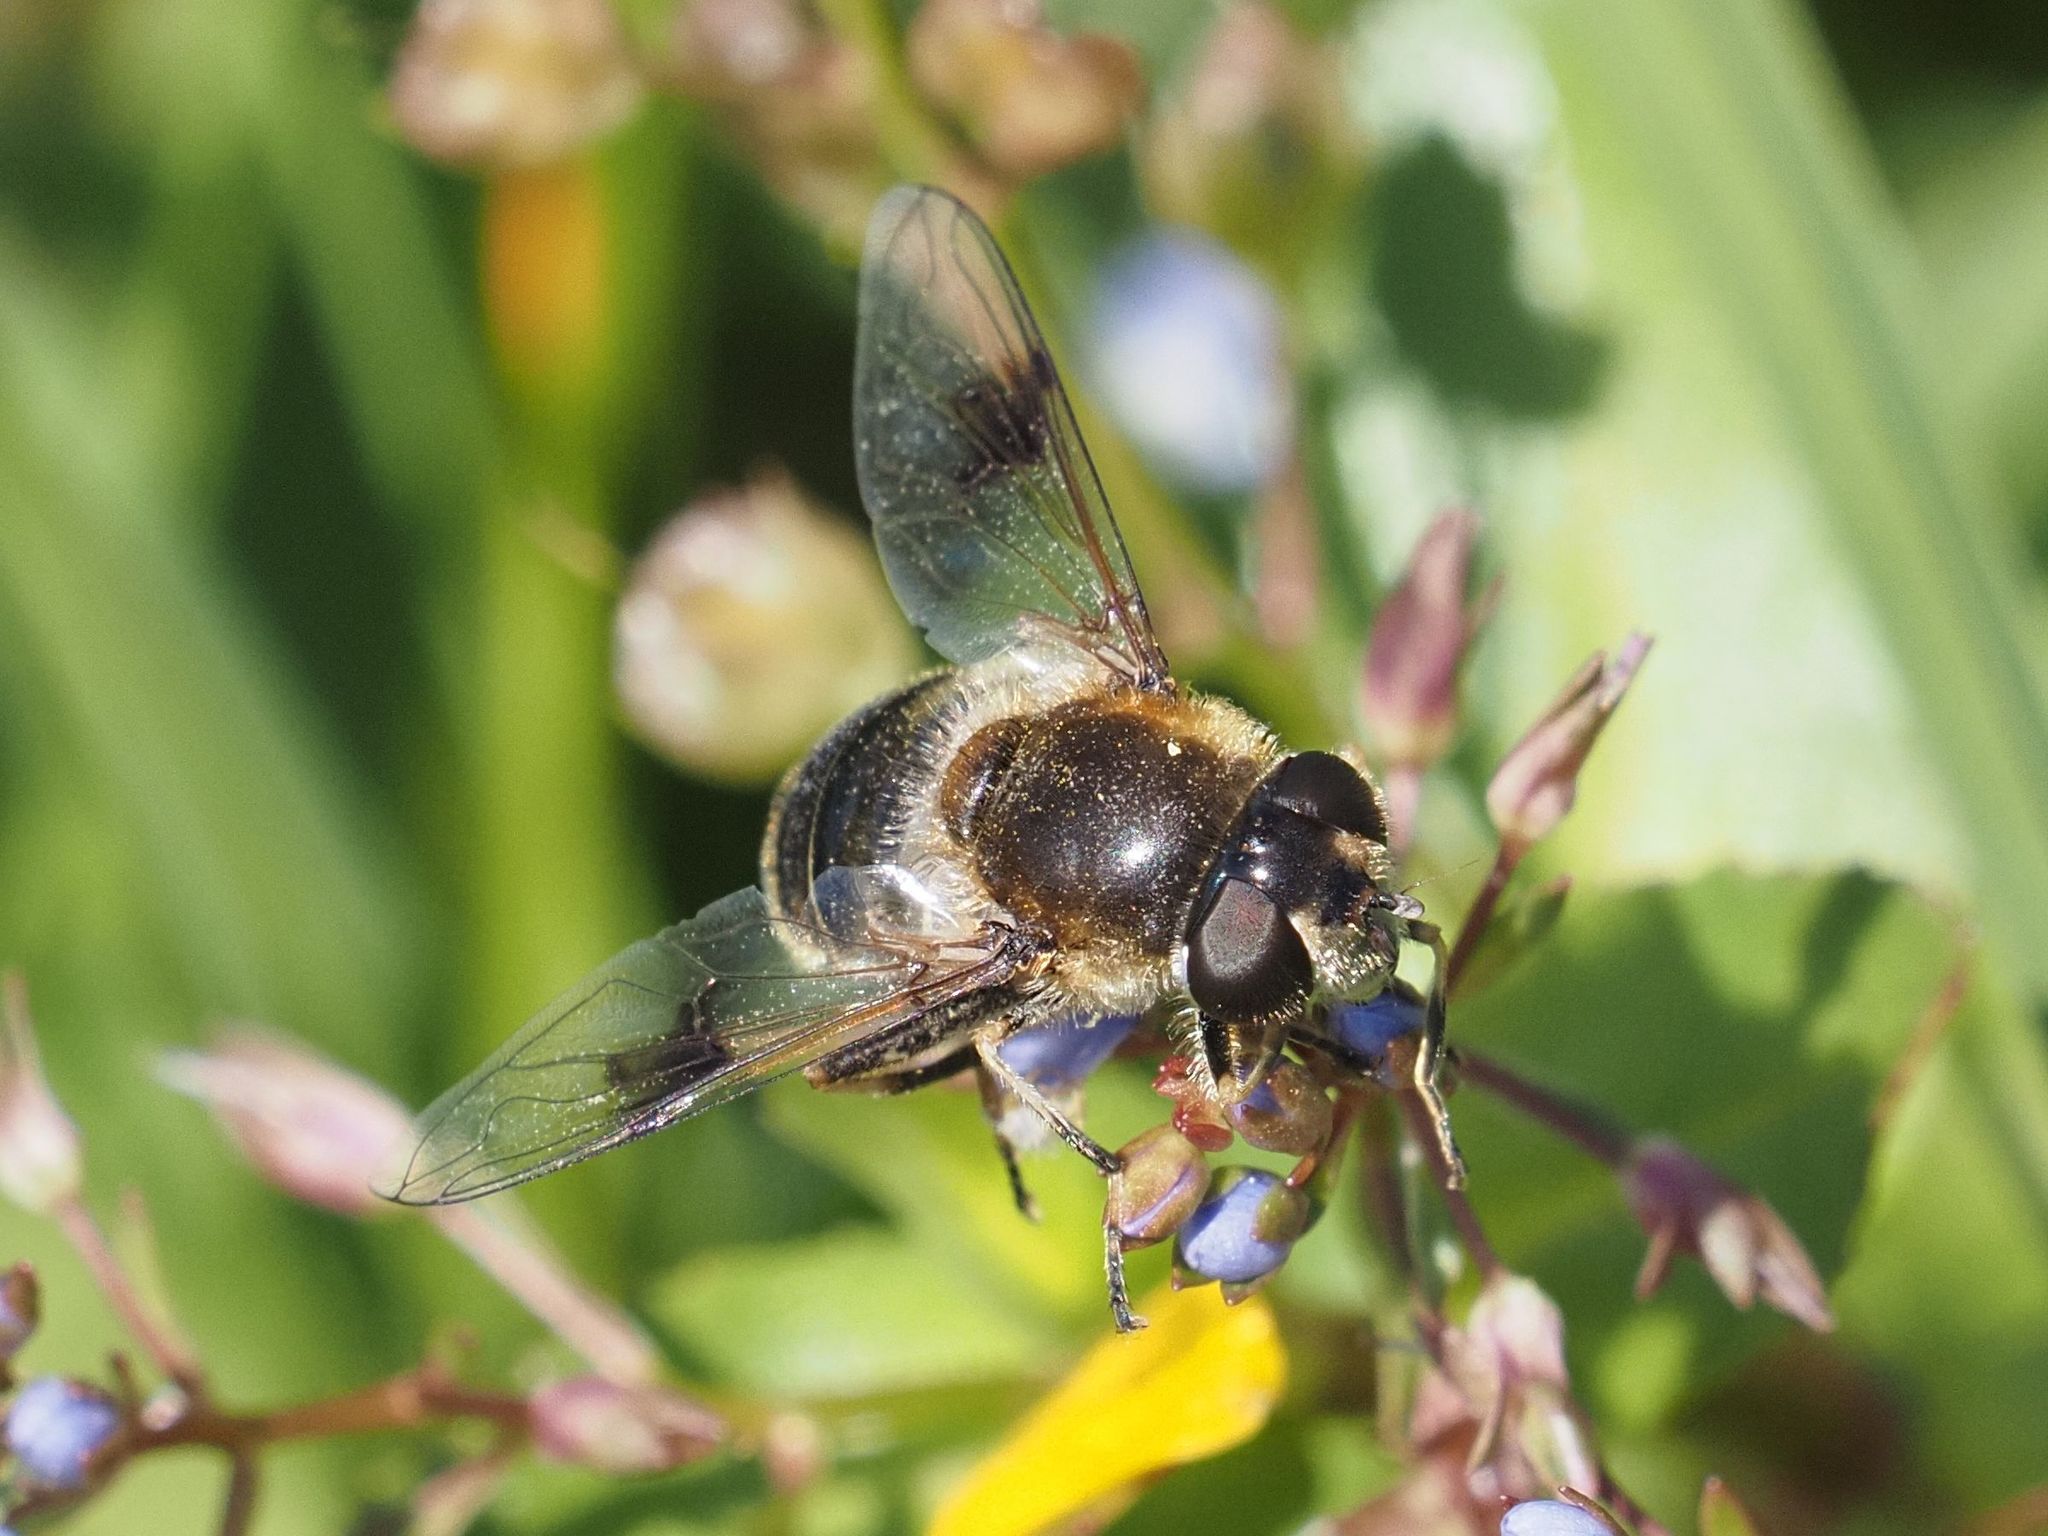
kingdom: Animalia
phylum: Arthropoda
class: Insecta
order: Diptera
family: Syrphidae
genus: Eristalis
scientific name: Eristalis rupium
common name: Hover fly
